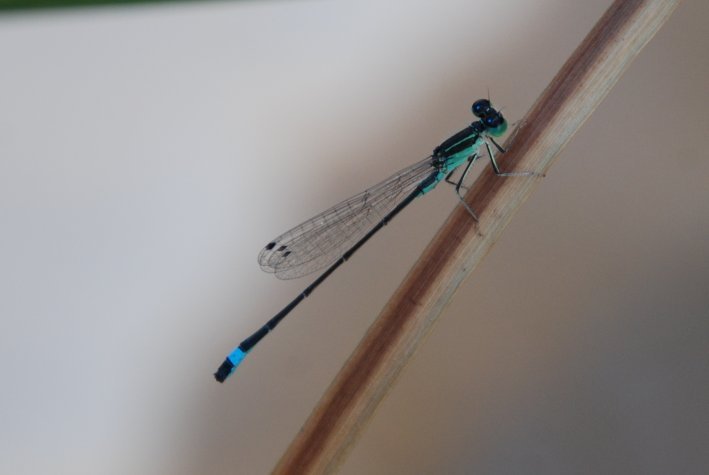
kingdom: Animalia
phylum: Arthropoda
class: Insecta
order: Odonata
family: Coenagrionidae
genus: Ischnura
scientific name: Ischnura evansi
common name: Desert bluetail
